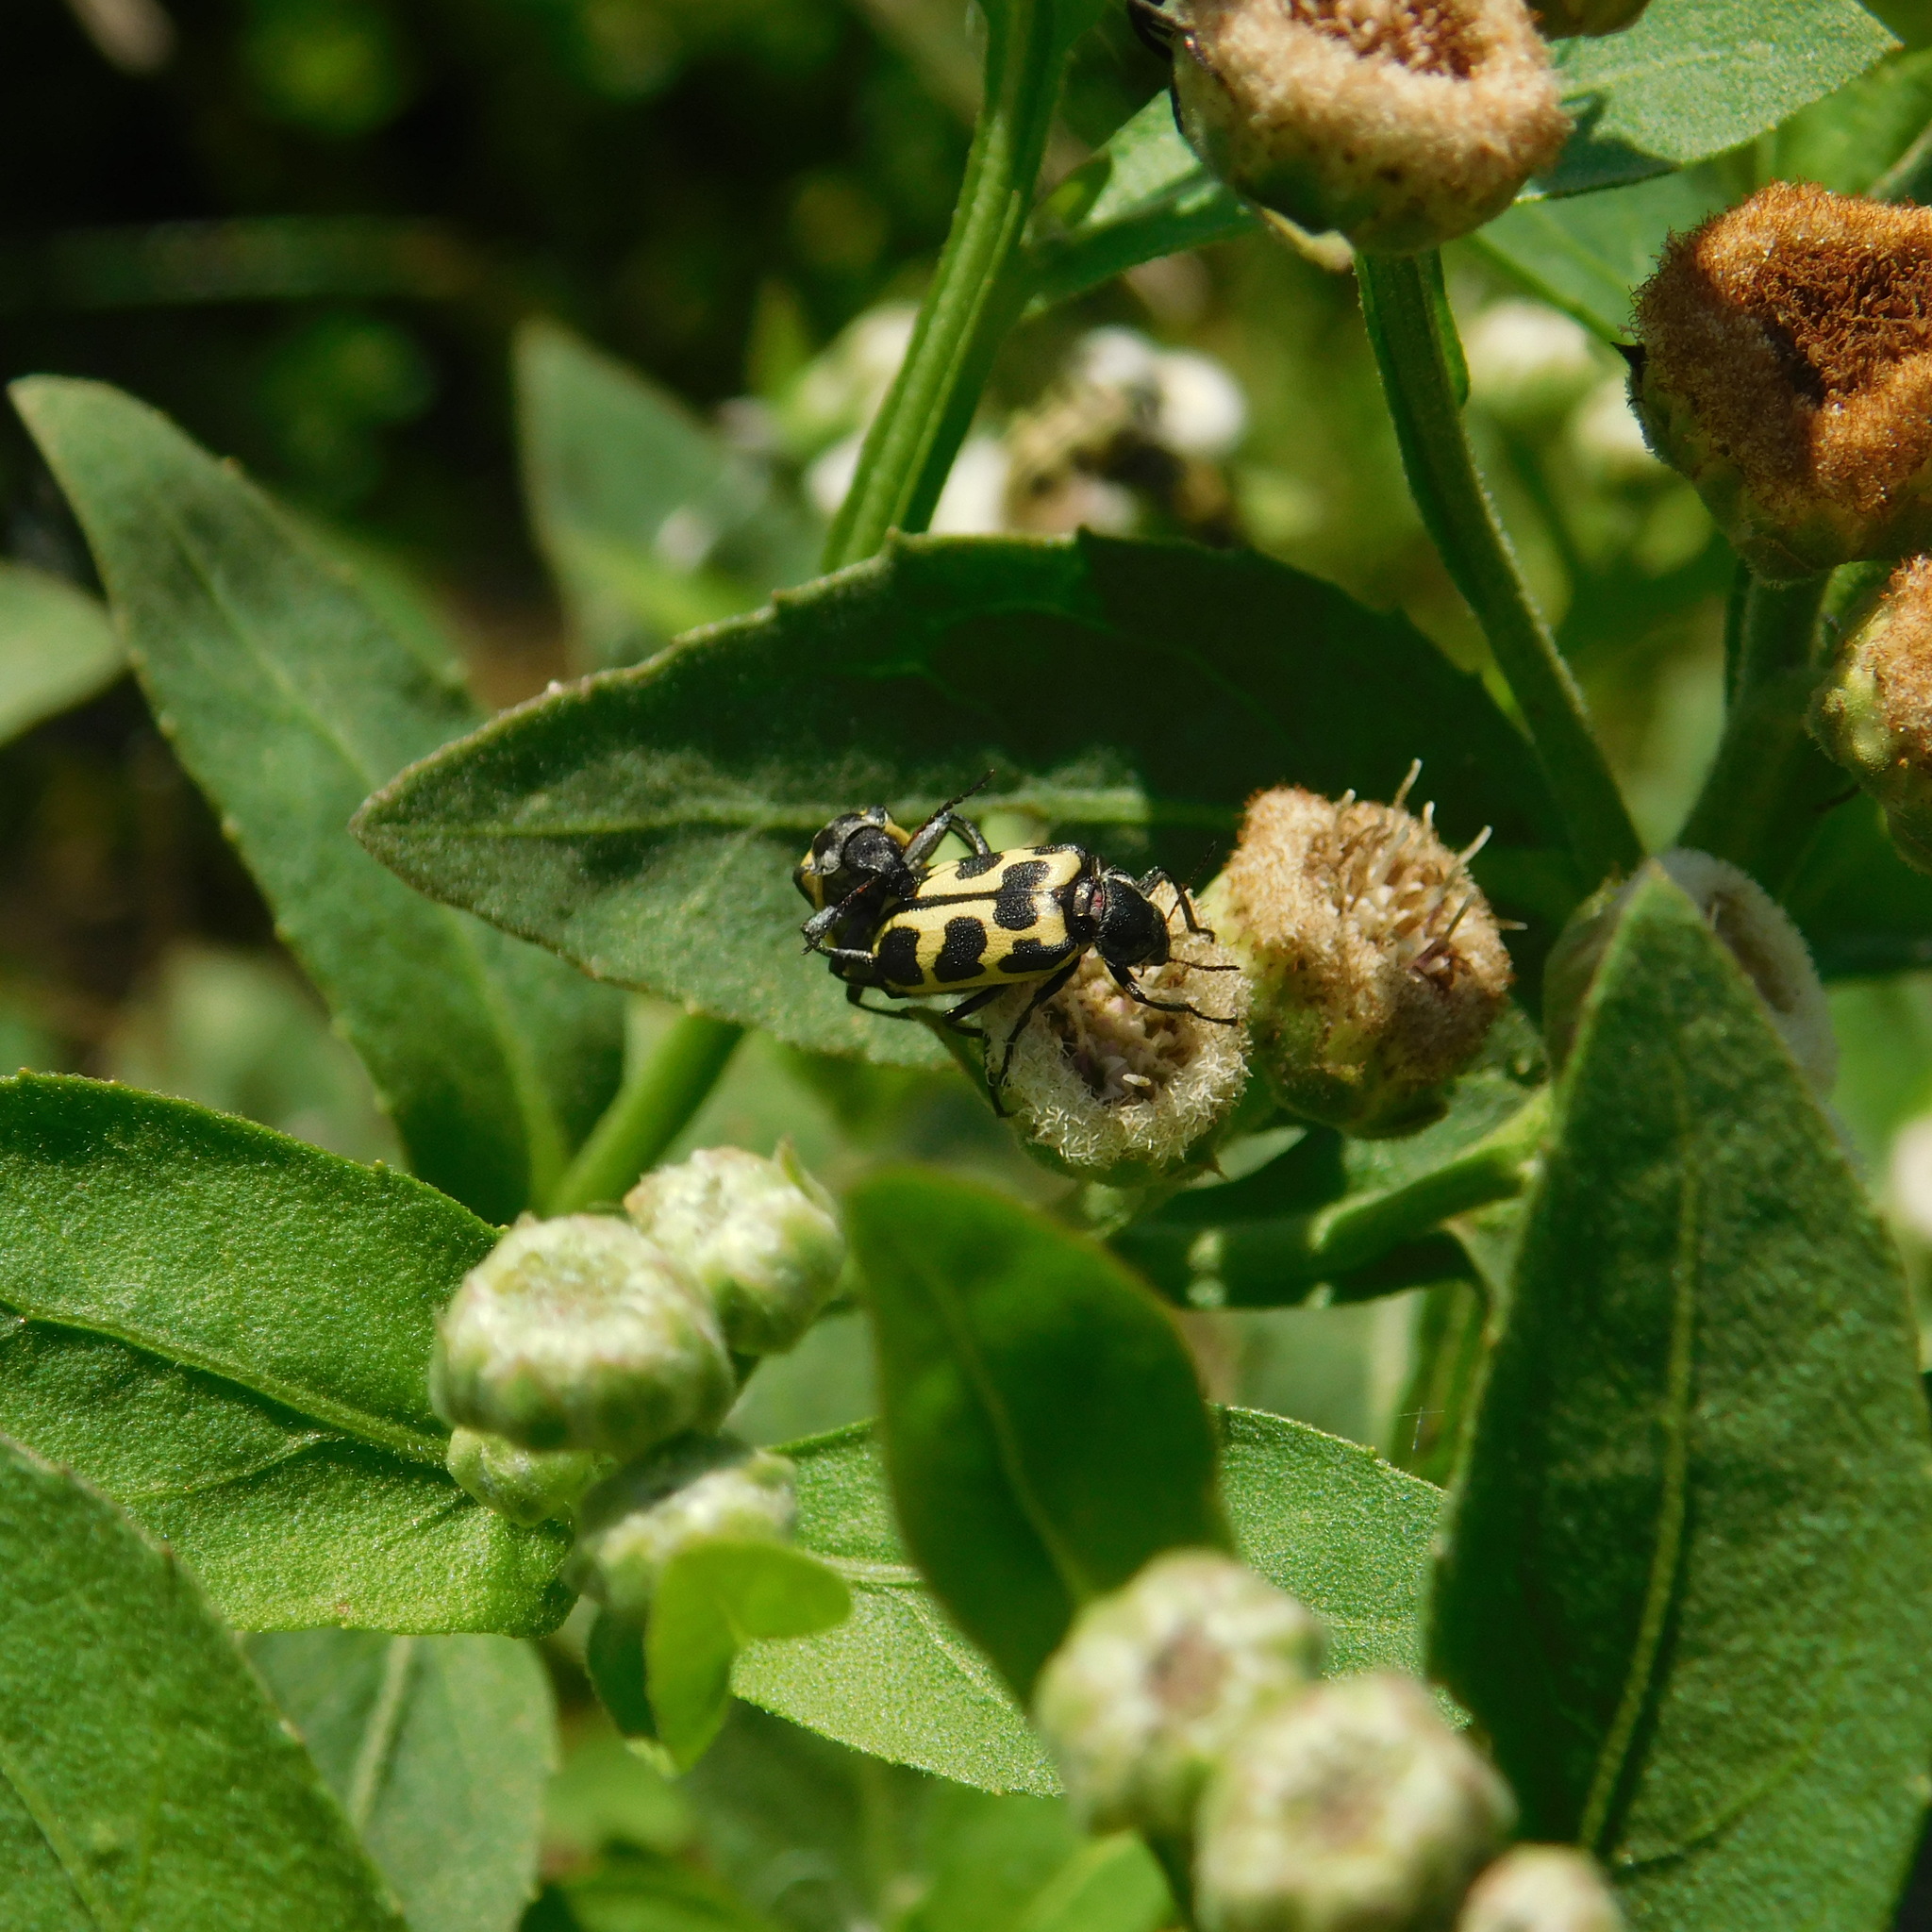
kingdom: Animalia
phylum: Arthropoda
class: Insecta
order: Coleoptera
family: Melyridae
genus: Astylus
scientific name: Astylus atromaculatus
